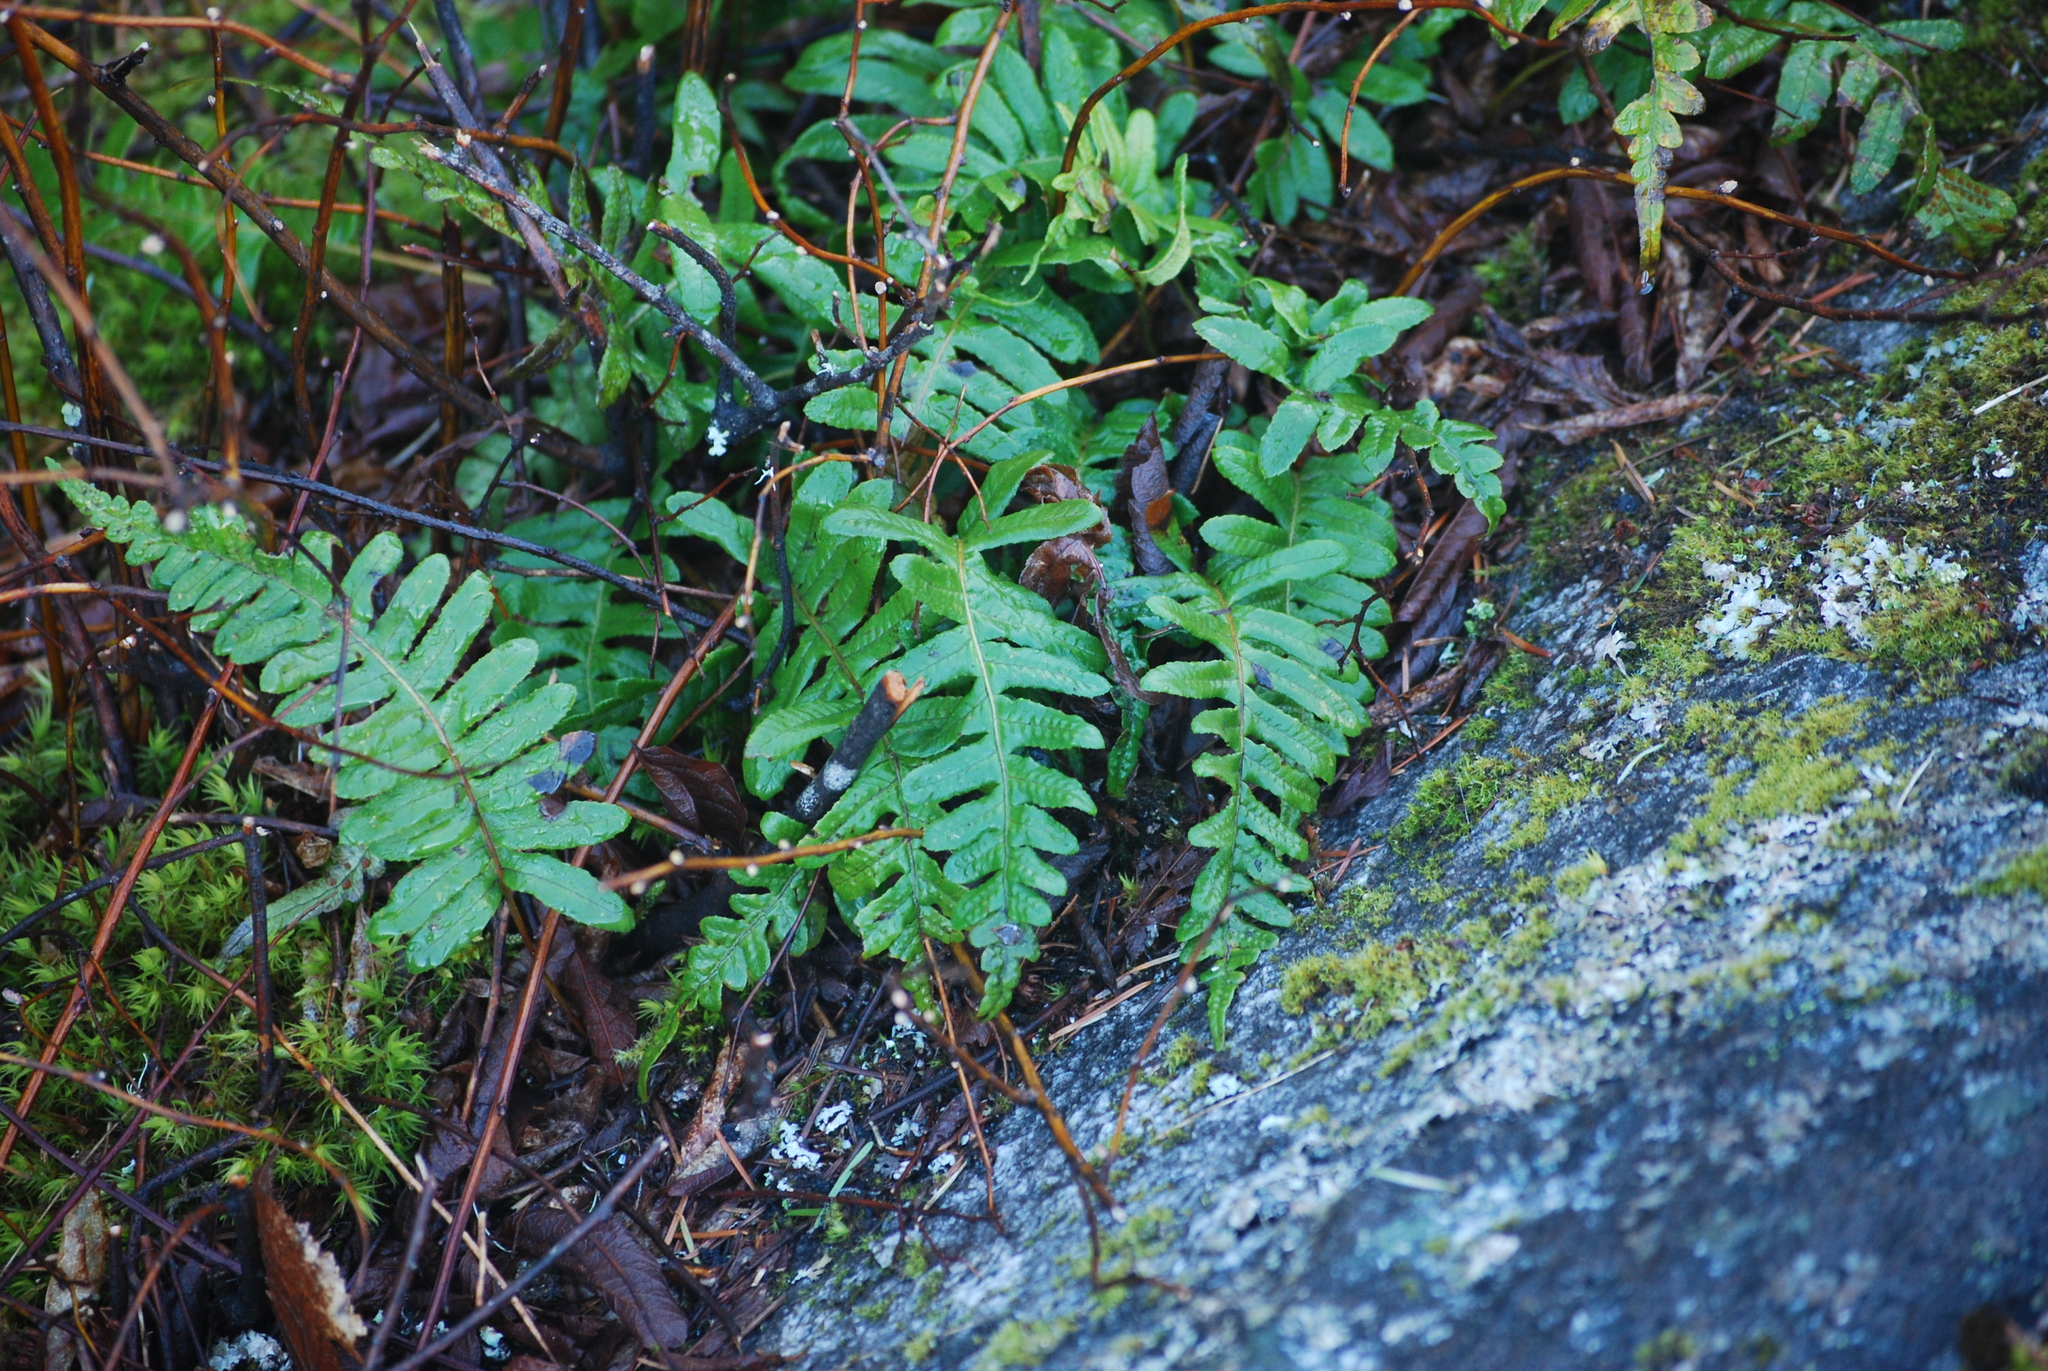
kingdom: Plantae
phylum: Tracheophyta
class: Polypodiopsida
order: Polypodiales
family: Polypodiaceae
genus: Polypodium
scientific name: Polypodium glycyrrhiza
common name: Licorice fern
